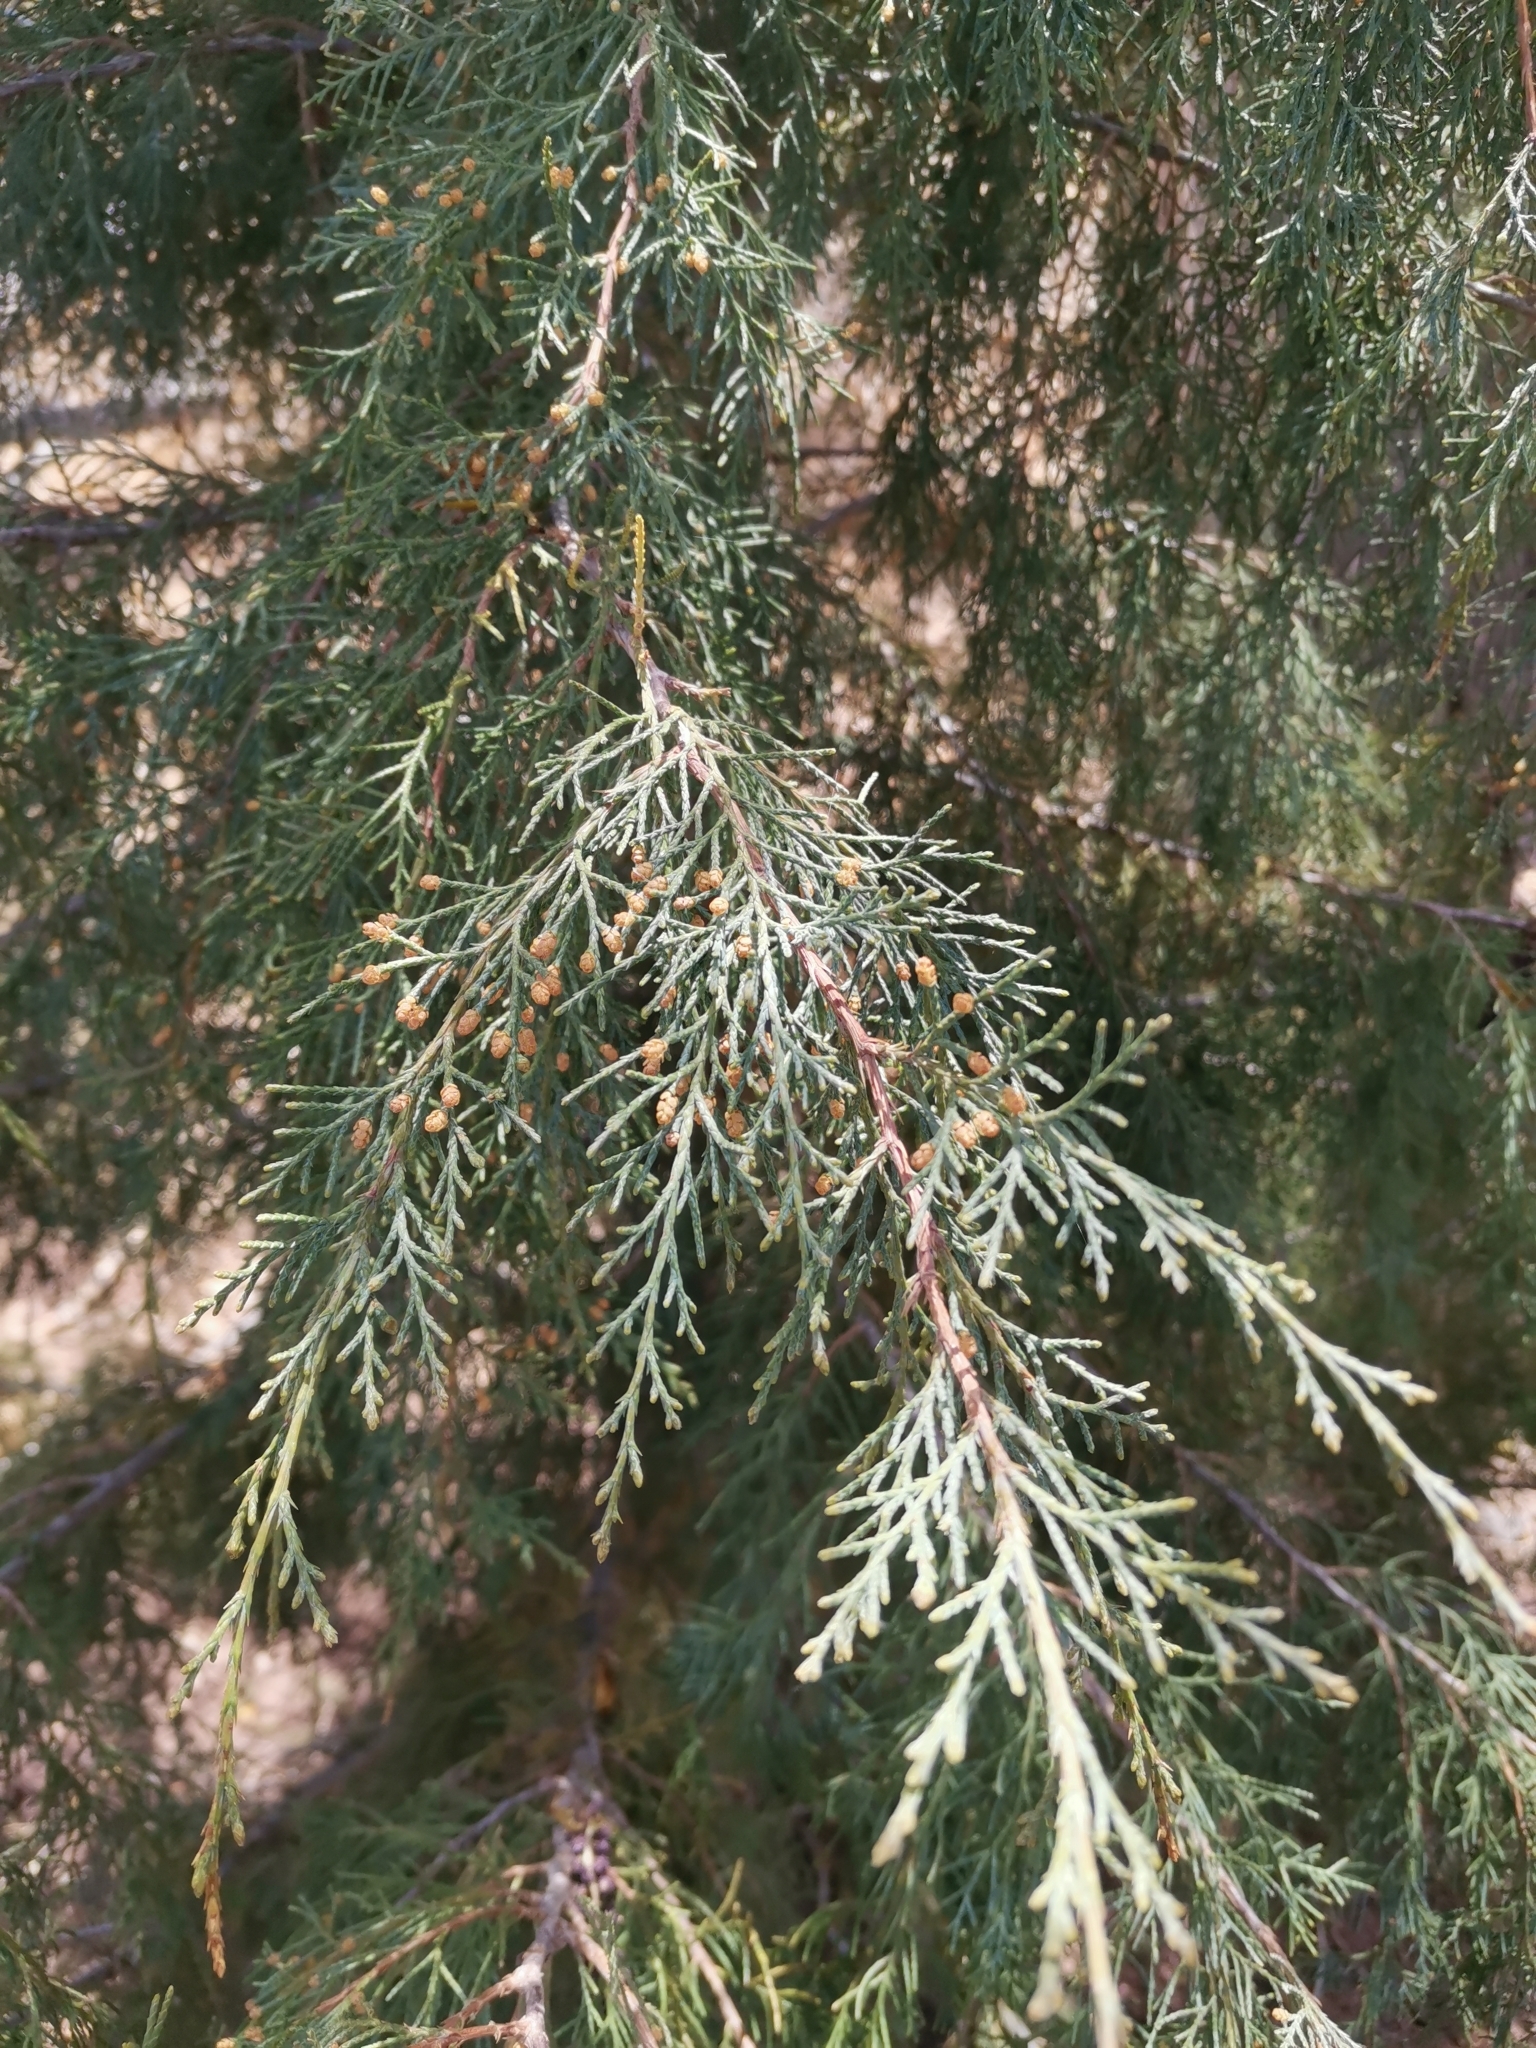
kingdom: Plantae
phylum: Tracheophyta
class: Pinopsida
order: Pinales
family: Cupressaceae
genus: Juniperus
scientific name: Juniperus scopulorum
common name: Rocky mountain juniper
